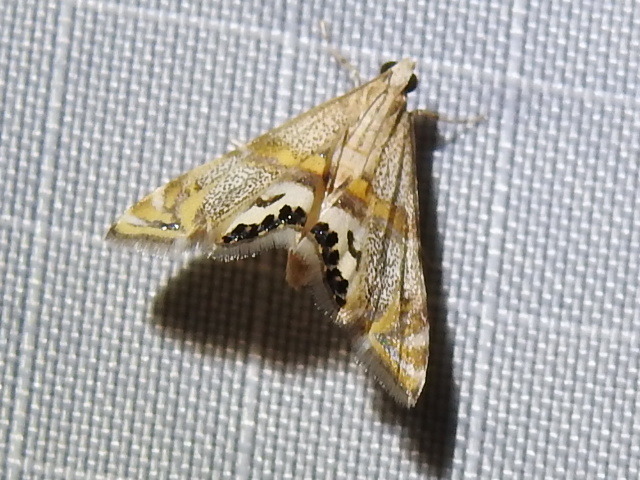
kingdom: Animalia
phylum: Arthropoda
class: Insecta
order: Lepidoptera
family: Crambidae
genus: Petrophila
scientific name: Petrophila bifascialis
